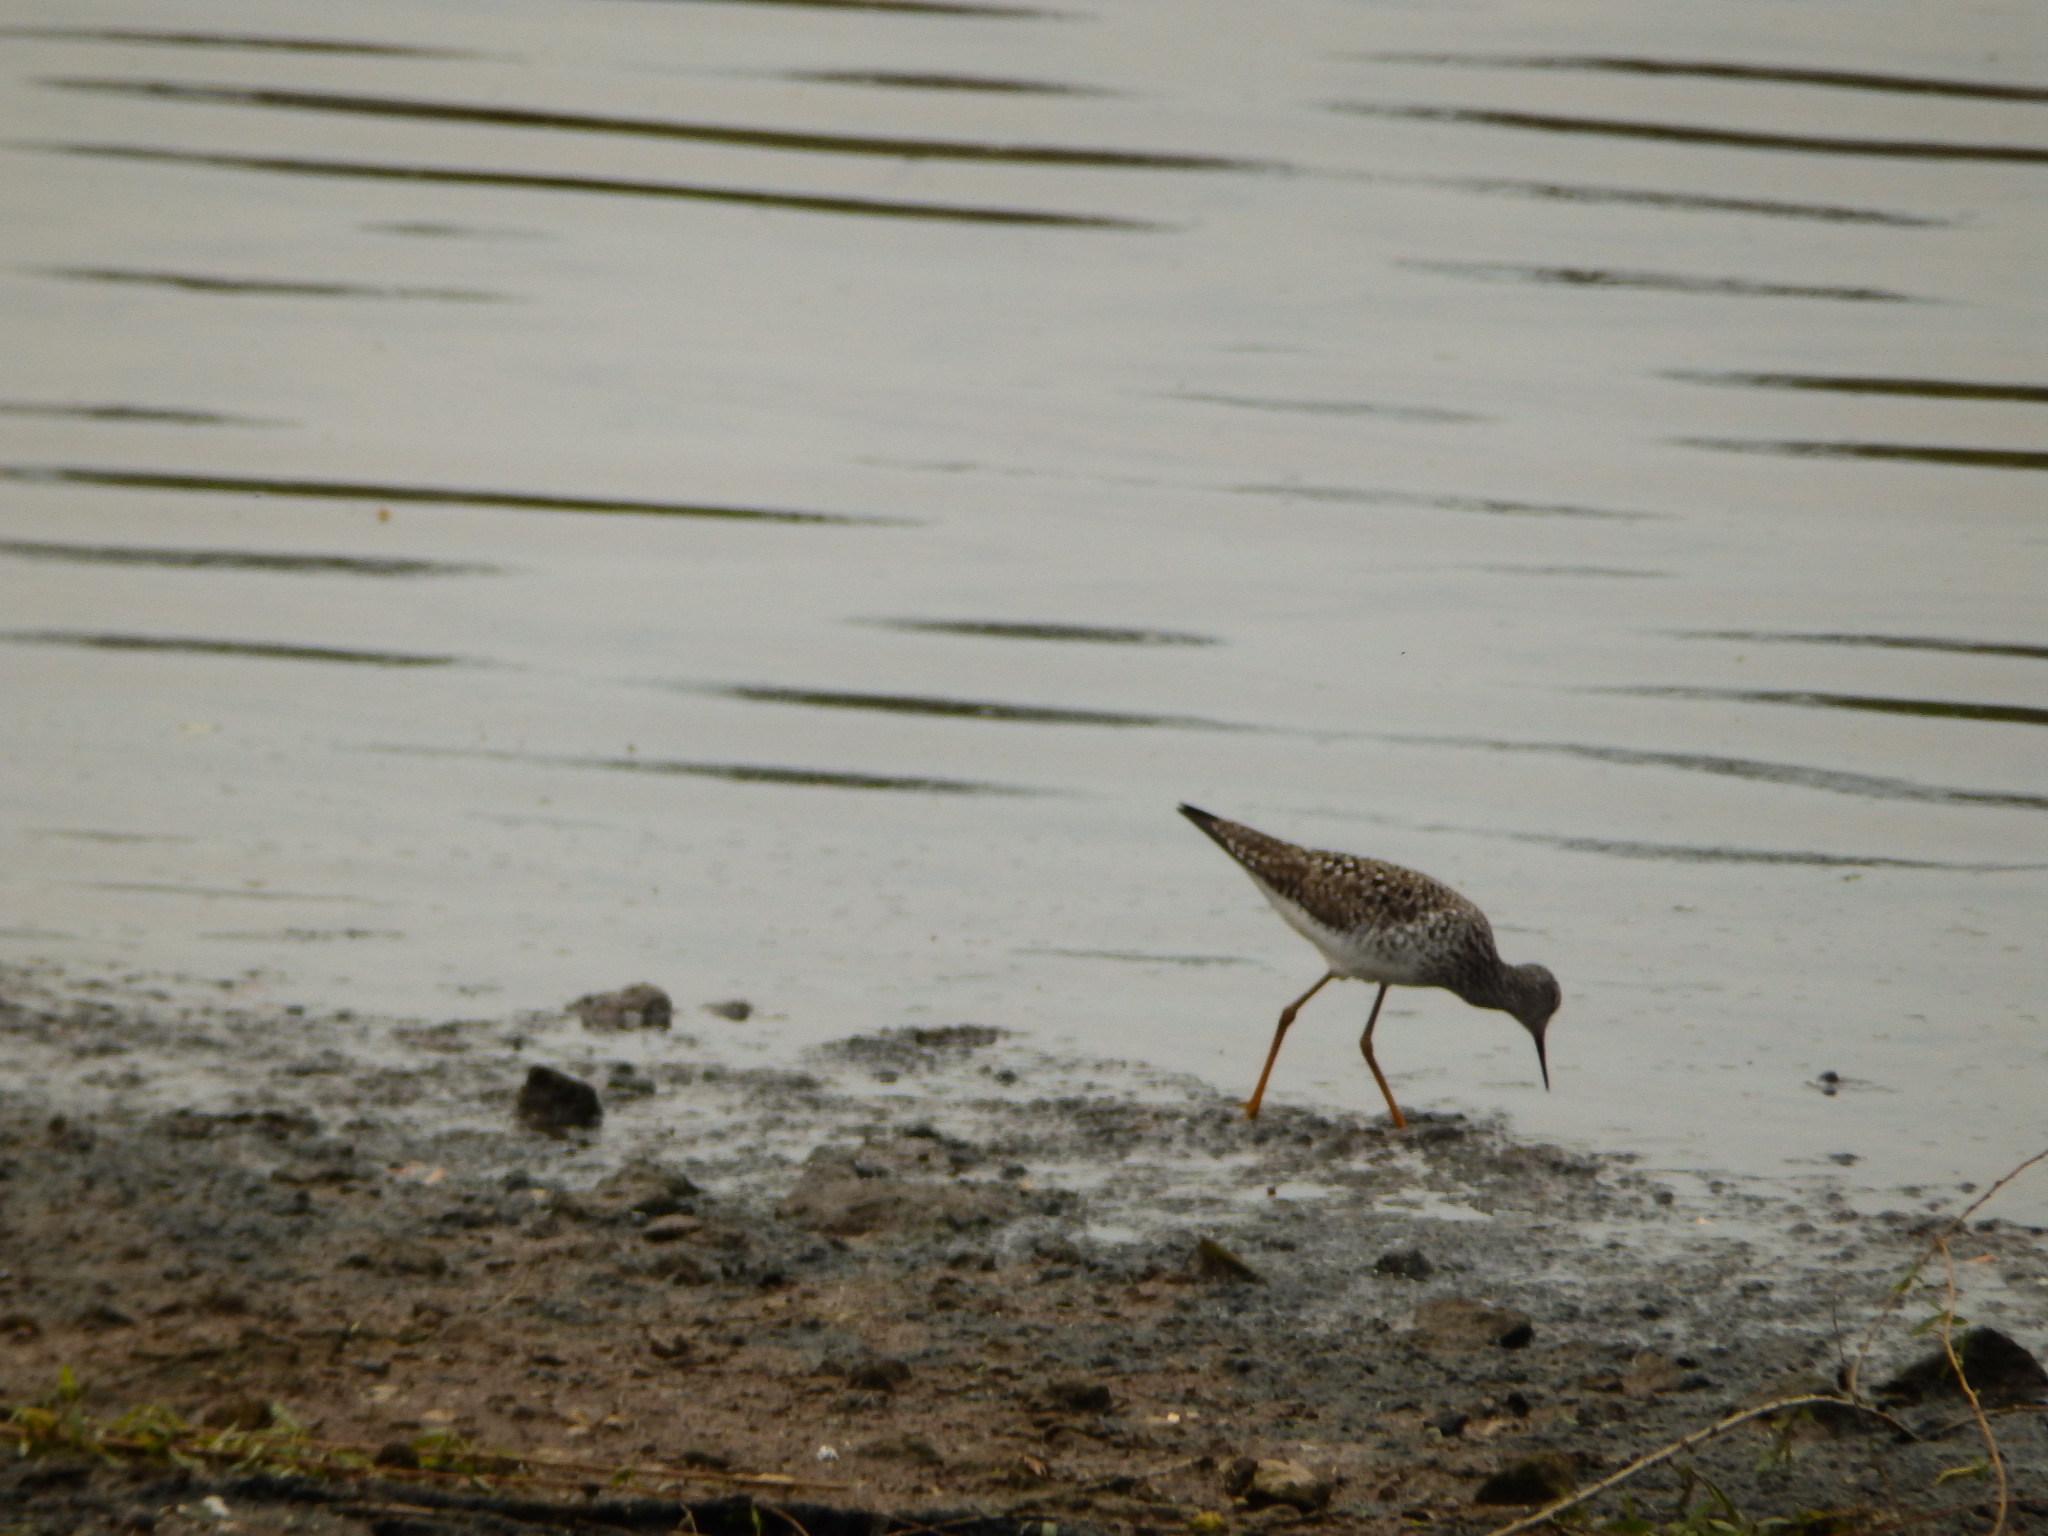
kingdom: Animalia
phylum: Chordata
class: Aves
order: Charadriiformes
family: Scolopacidae
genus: Tringa
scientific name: Tringa flavipes
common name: Lesser yellowlegs
